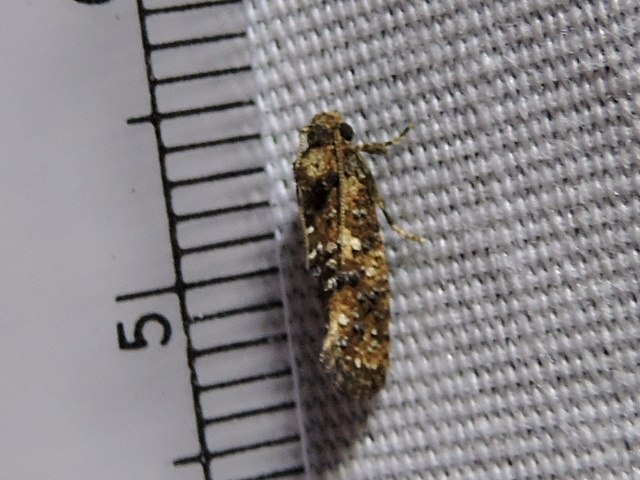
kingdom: Animalia
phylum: Arthropoda
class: Insecta
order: Lepidoptera
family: Tineidae
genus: Acrolophus
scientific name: Acrolophus cressoni
